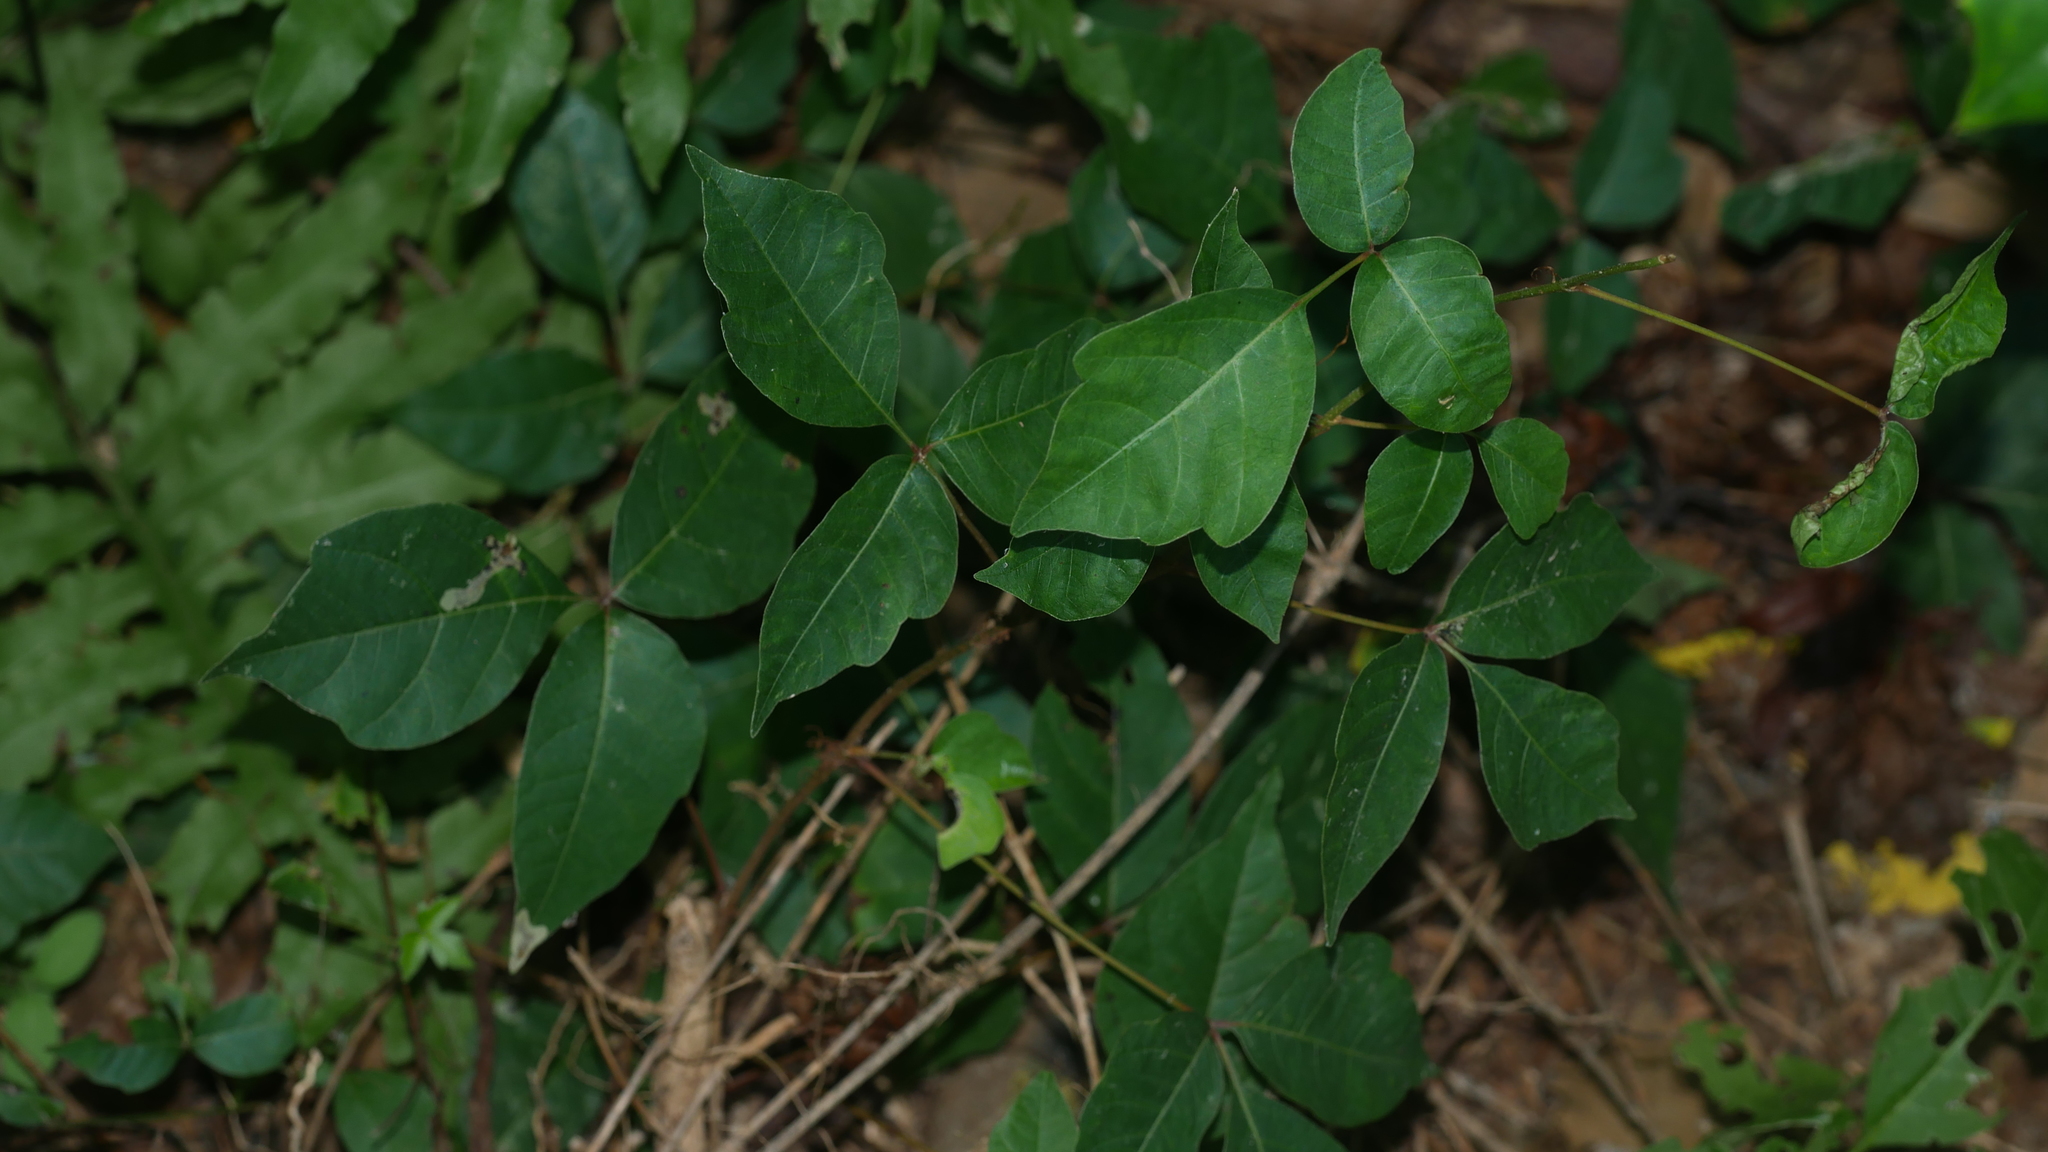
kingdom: Plantae
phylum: Tracheophyta
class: Magnoliopsida
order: Sapindales
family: Anacardiaceae
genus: Toxicodendron
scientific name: Toxicodendron radicans
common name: Poison ivy
